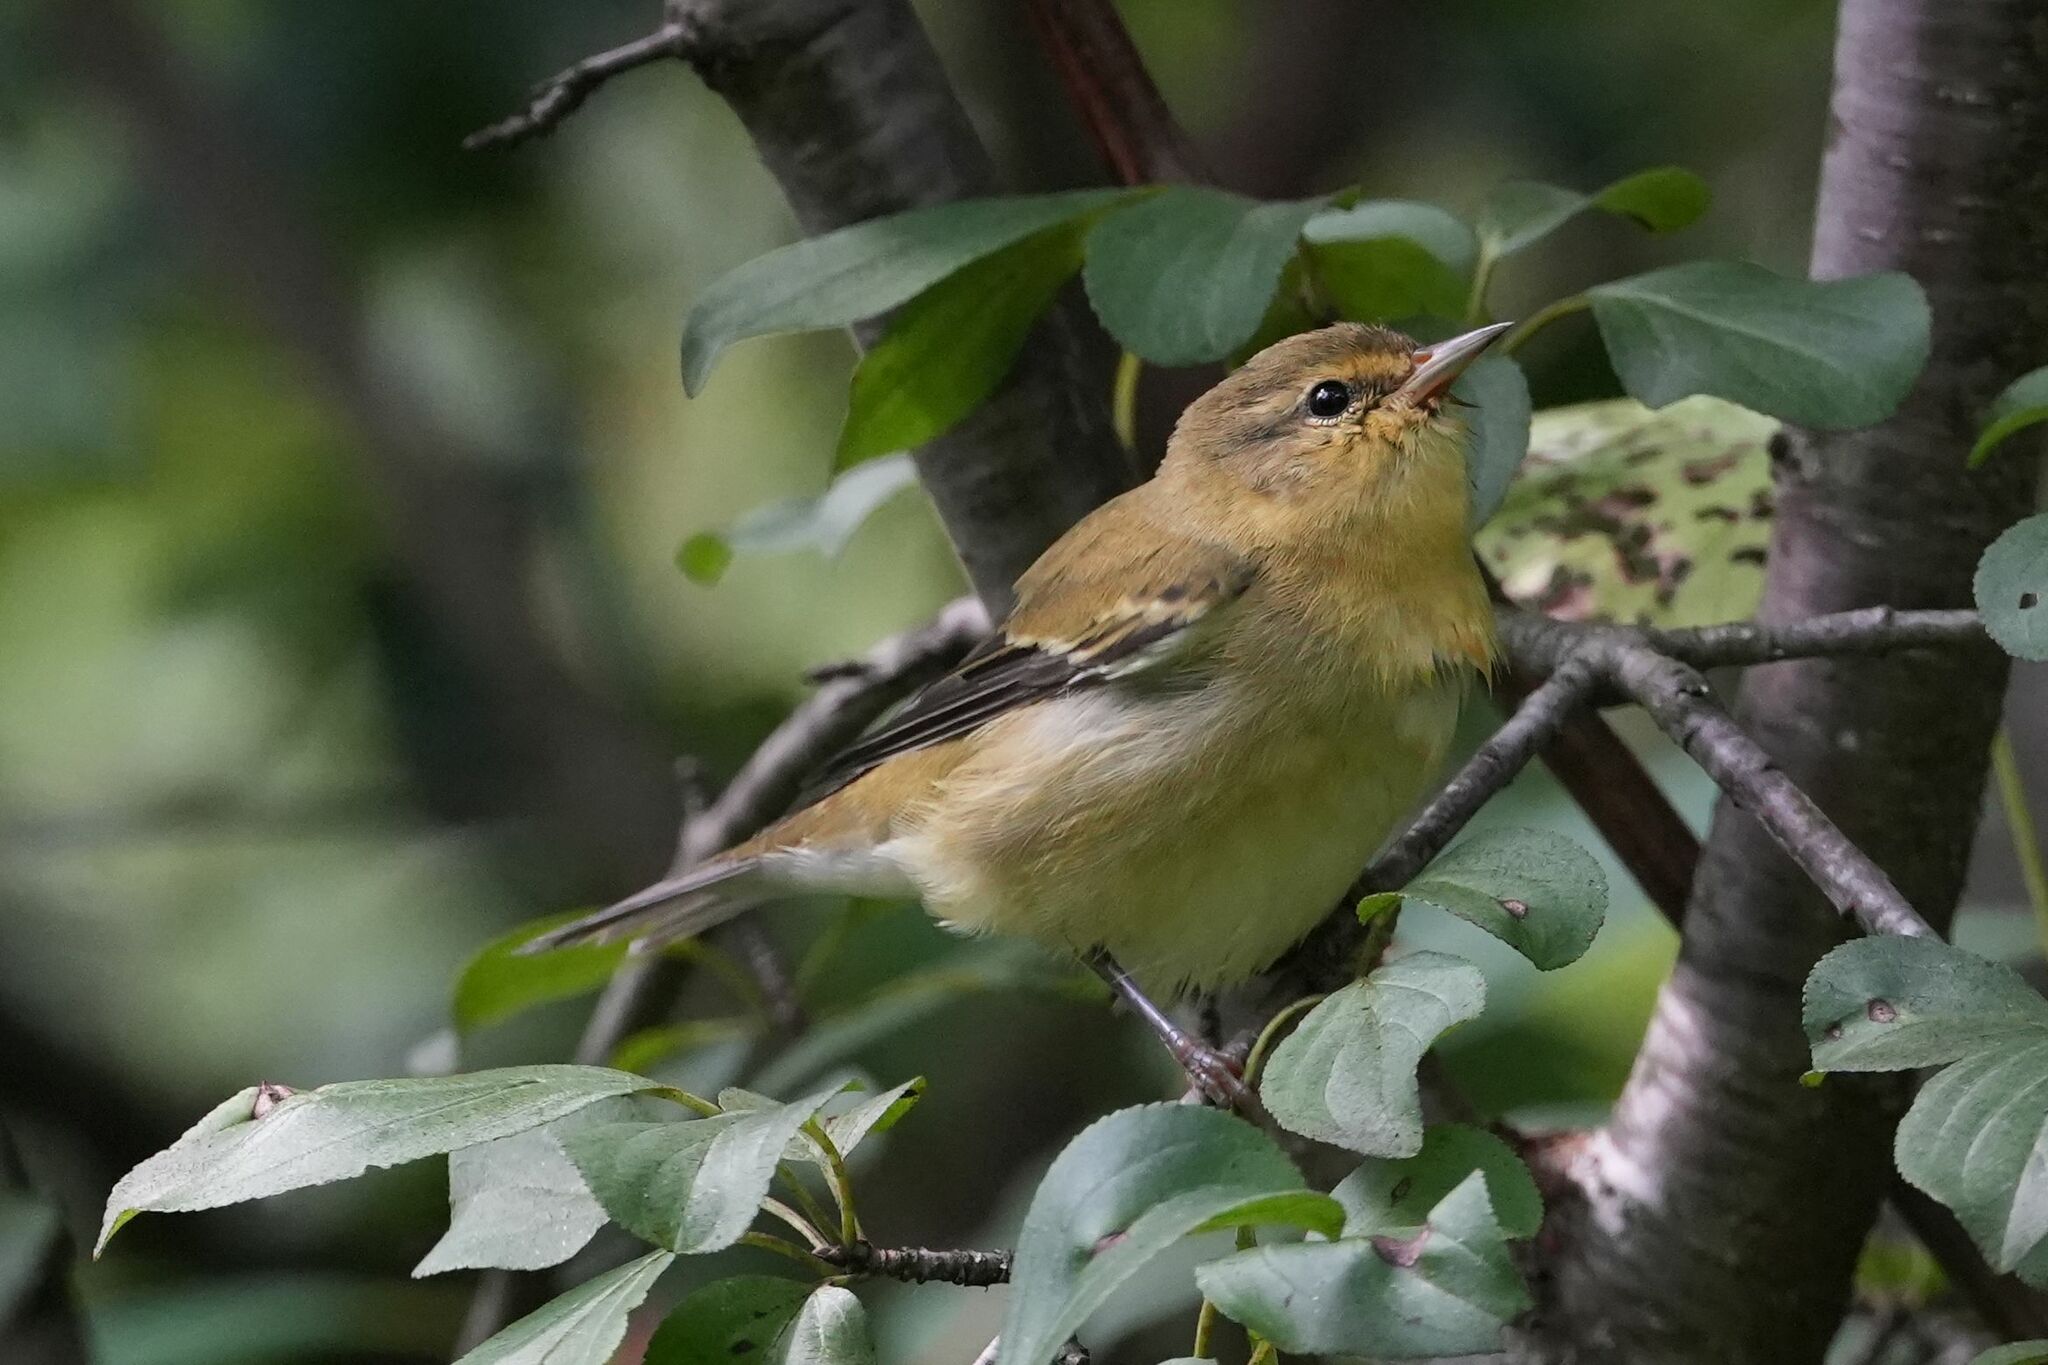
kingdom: Animalia
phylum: Chordata
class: Aves
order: Passeriformes
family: Parulidae
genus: Leiothlypis
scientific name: Leiothlypis peregrina
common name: Tennessee warbler
